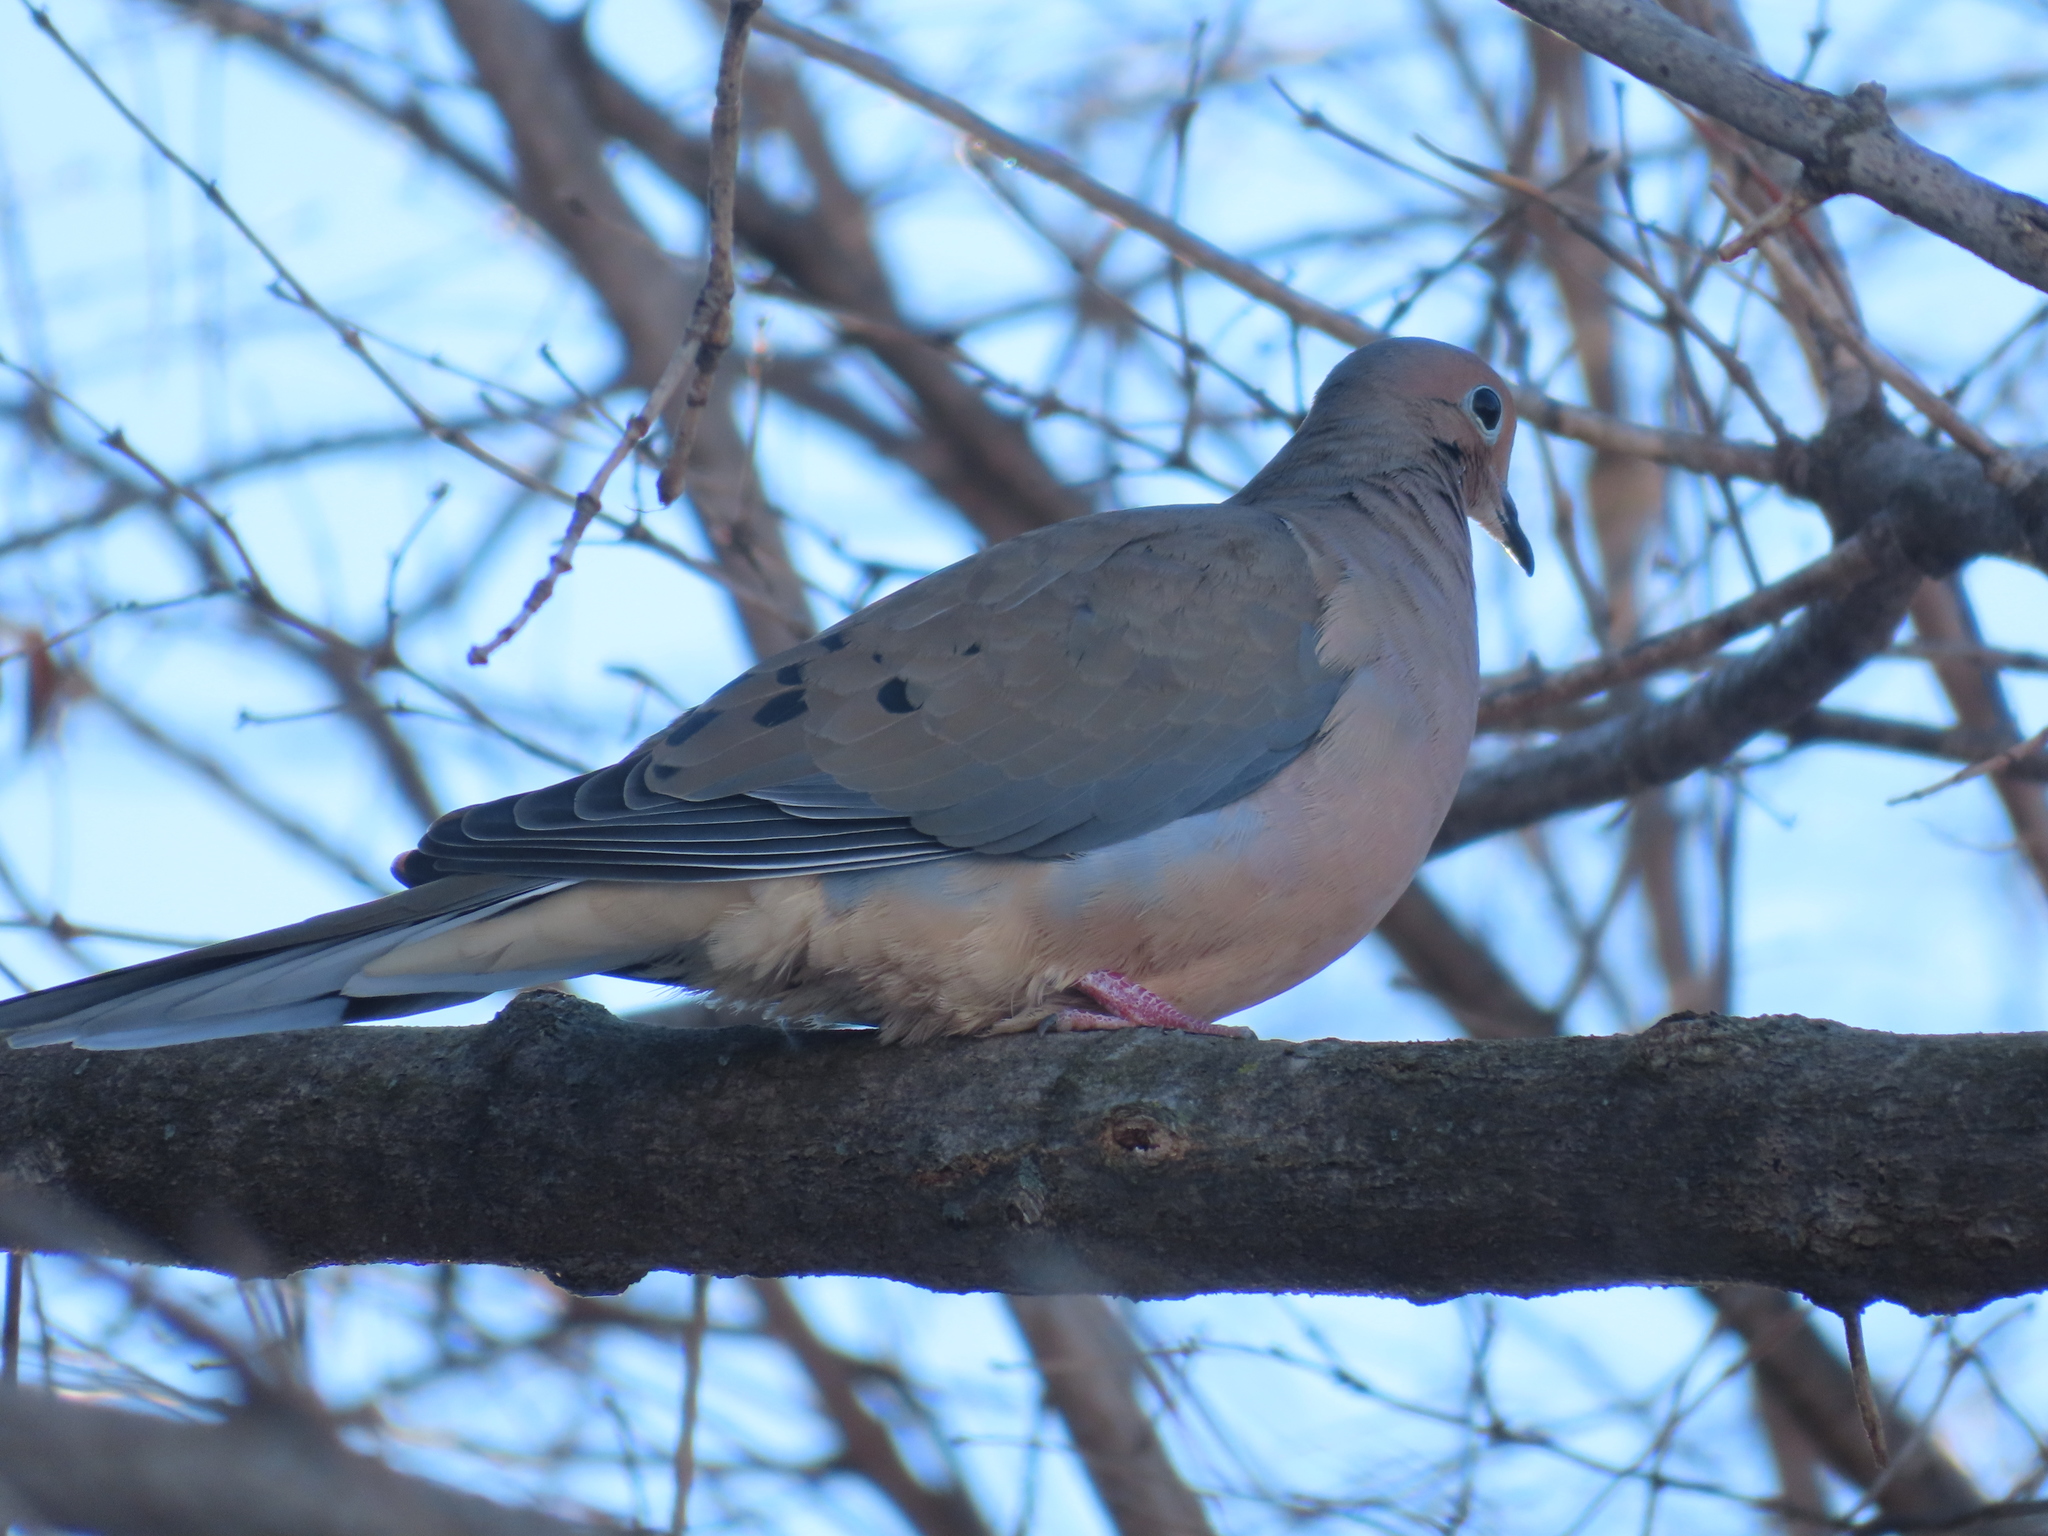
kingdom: Animalia
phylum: Chordata
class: Aves
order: Columbiformes
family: Columbidae
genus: Zenaida
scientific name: Zenaida macroura
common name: Mourning dove
